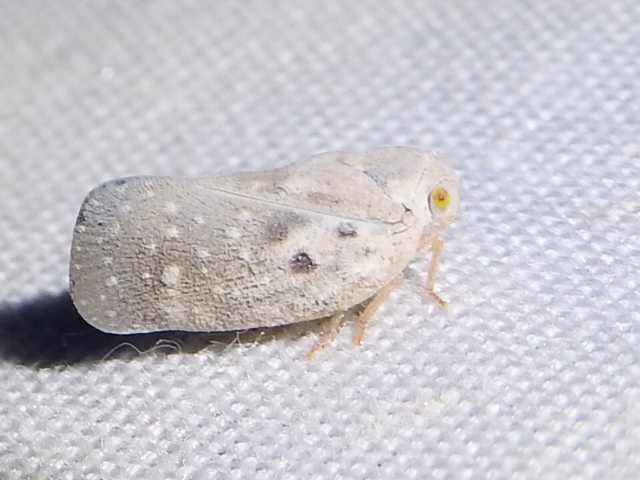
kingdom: Animalia
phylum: Arthropoda
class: Insecta
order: Hemiptera
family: Flatidae
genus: Metcalfa
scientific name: Metcalfa pruinosa
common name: Citrus flatid planthopper
